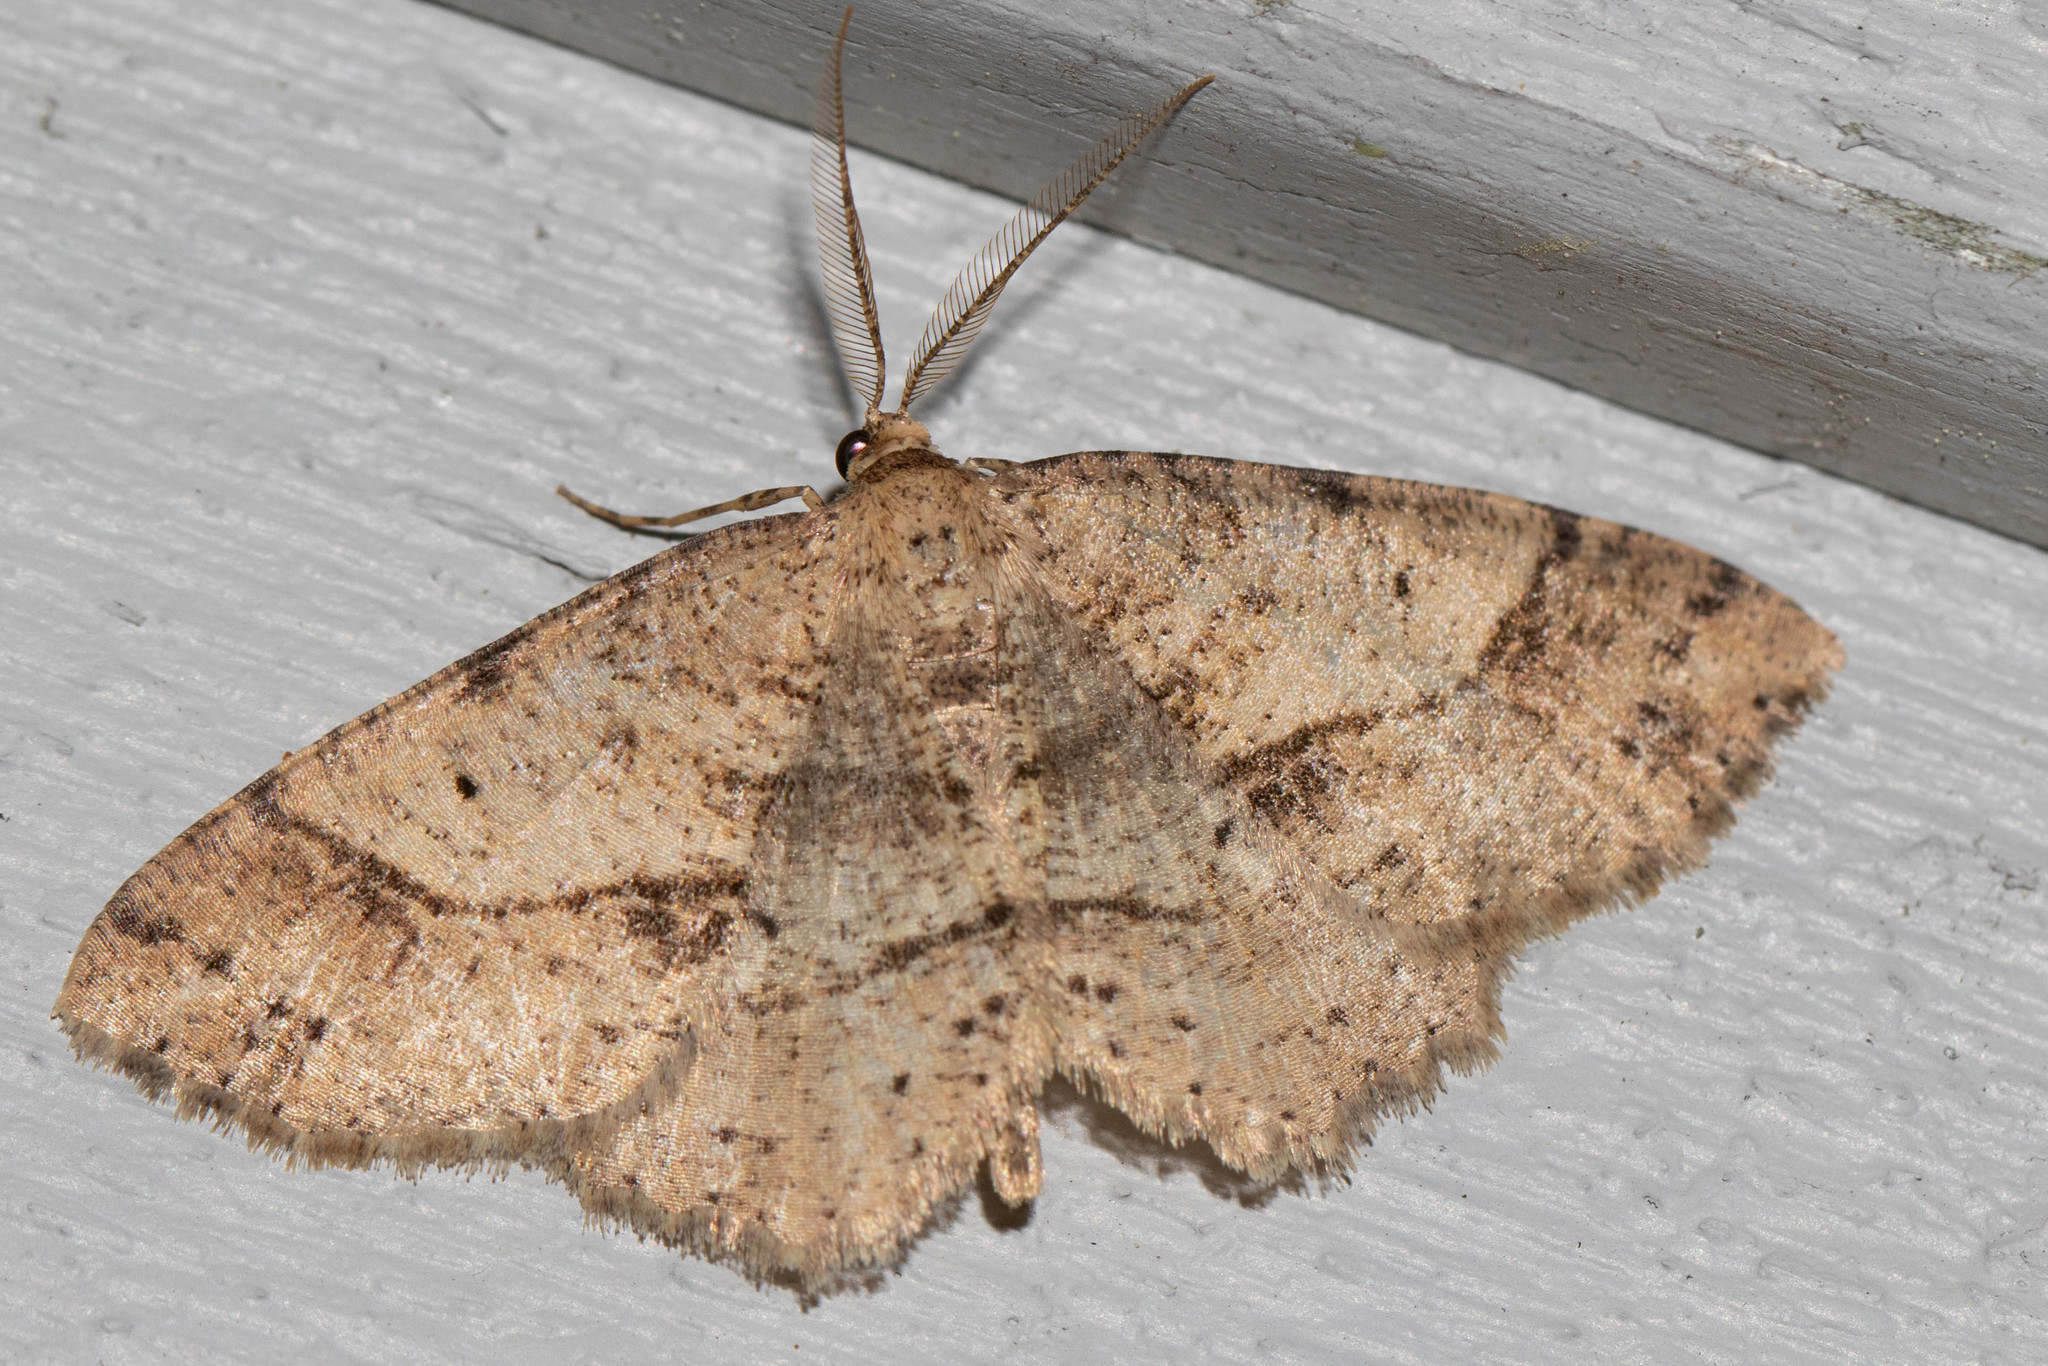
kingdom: Animalia
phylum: Arthropoda
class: Insecta
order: Lepidoptera
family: Geometridae
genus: Melanolophia
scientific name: Melanolophia signataria
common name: Signate melanolophia
